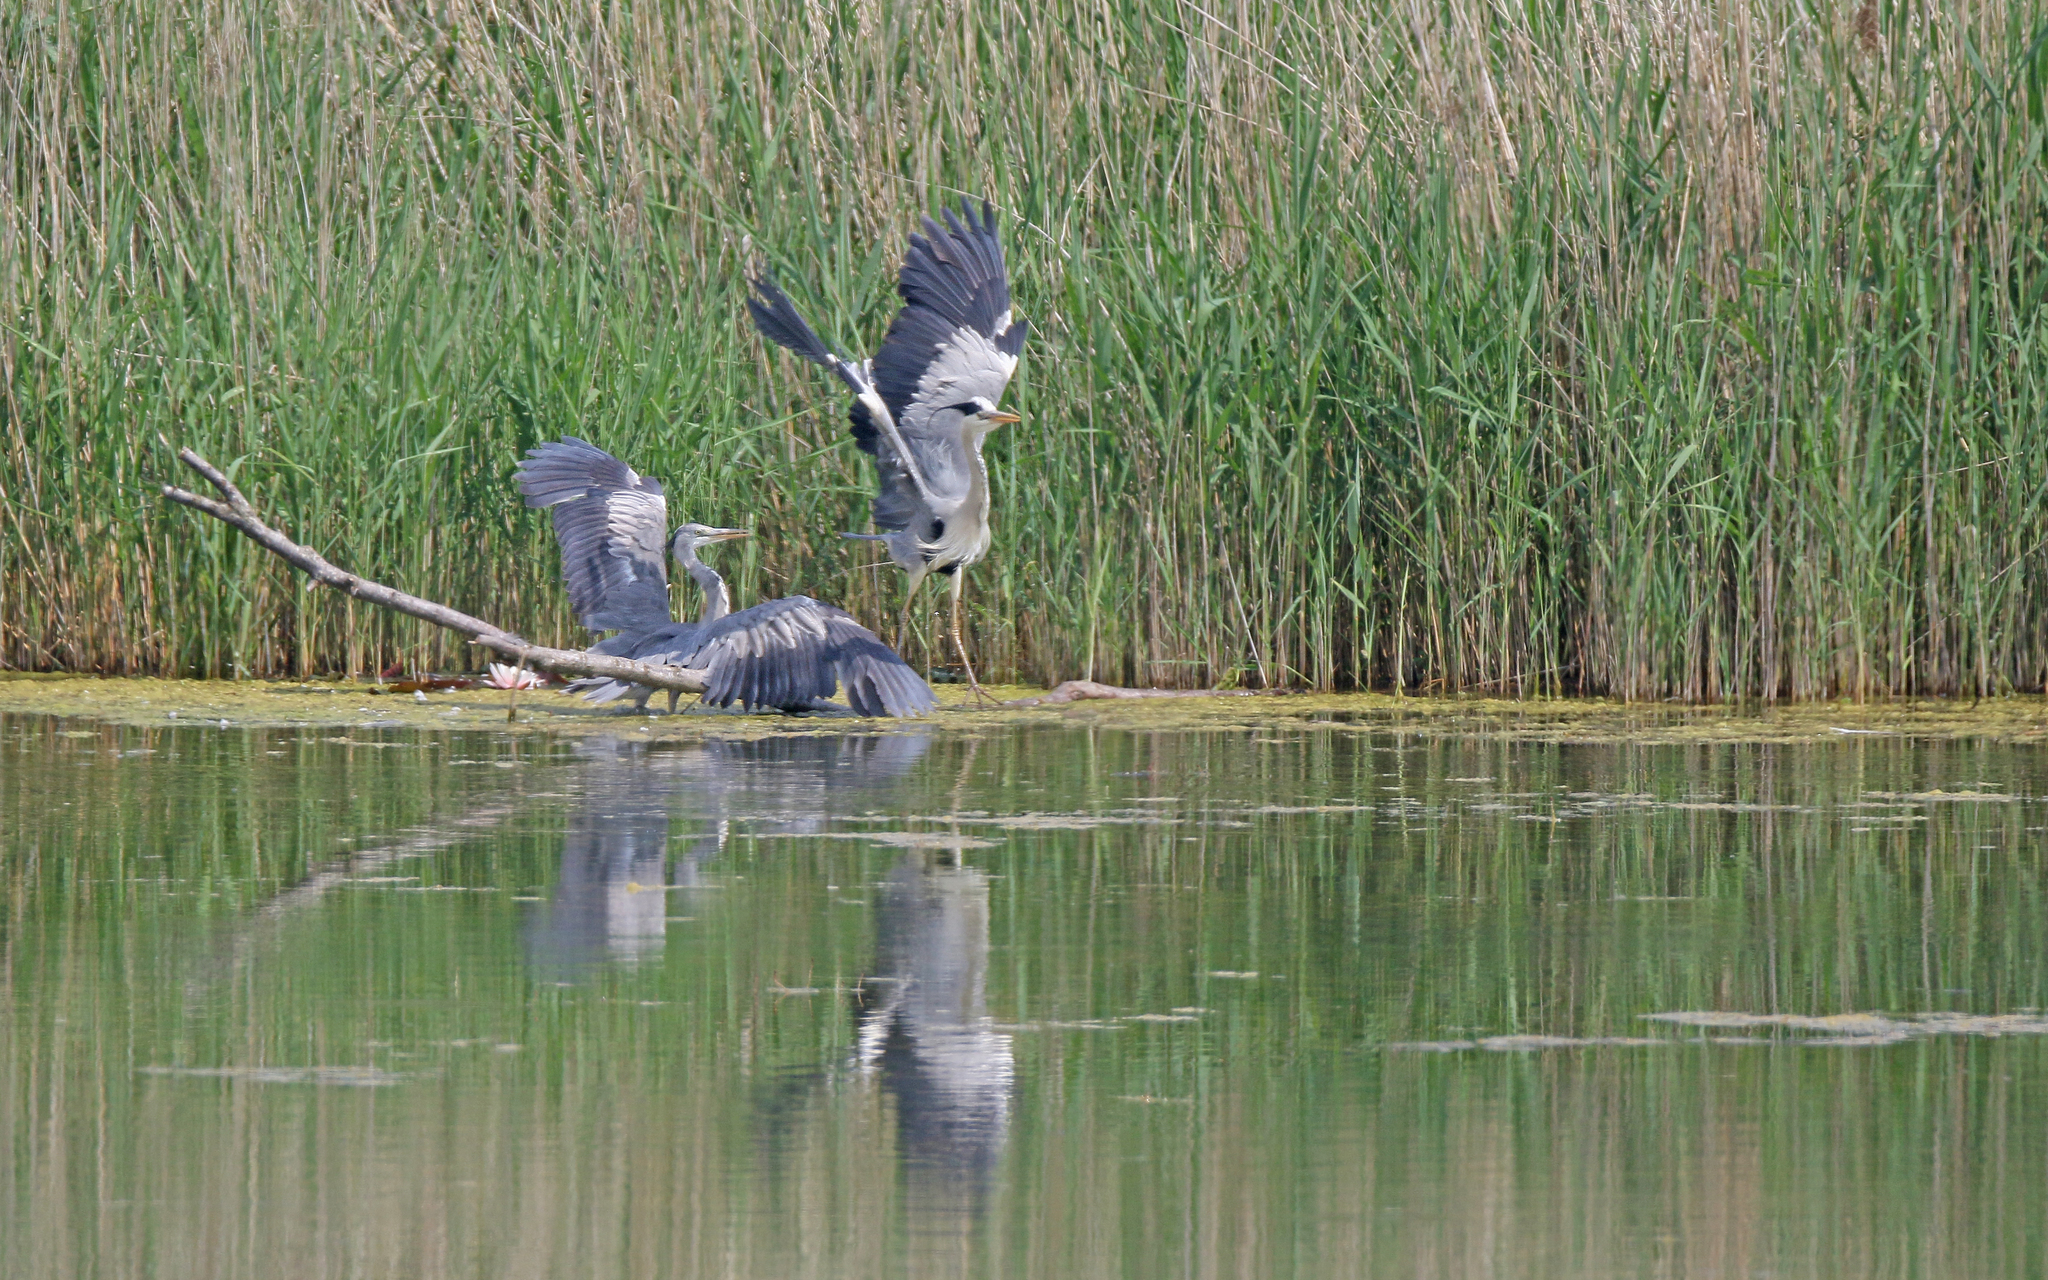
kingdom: Animalia
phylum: Chordata
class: Aves
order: Pelecaniformes
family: Ardeidae
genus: Ardea
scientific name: Ardea cinerea
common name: Grey heron
